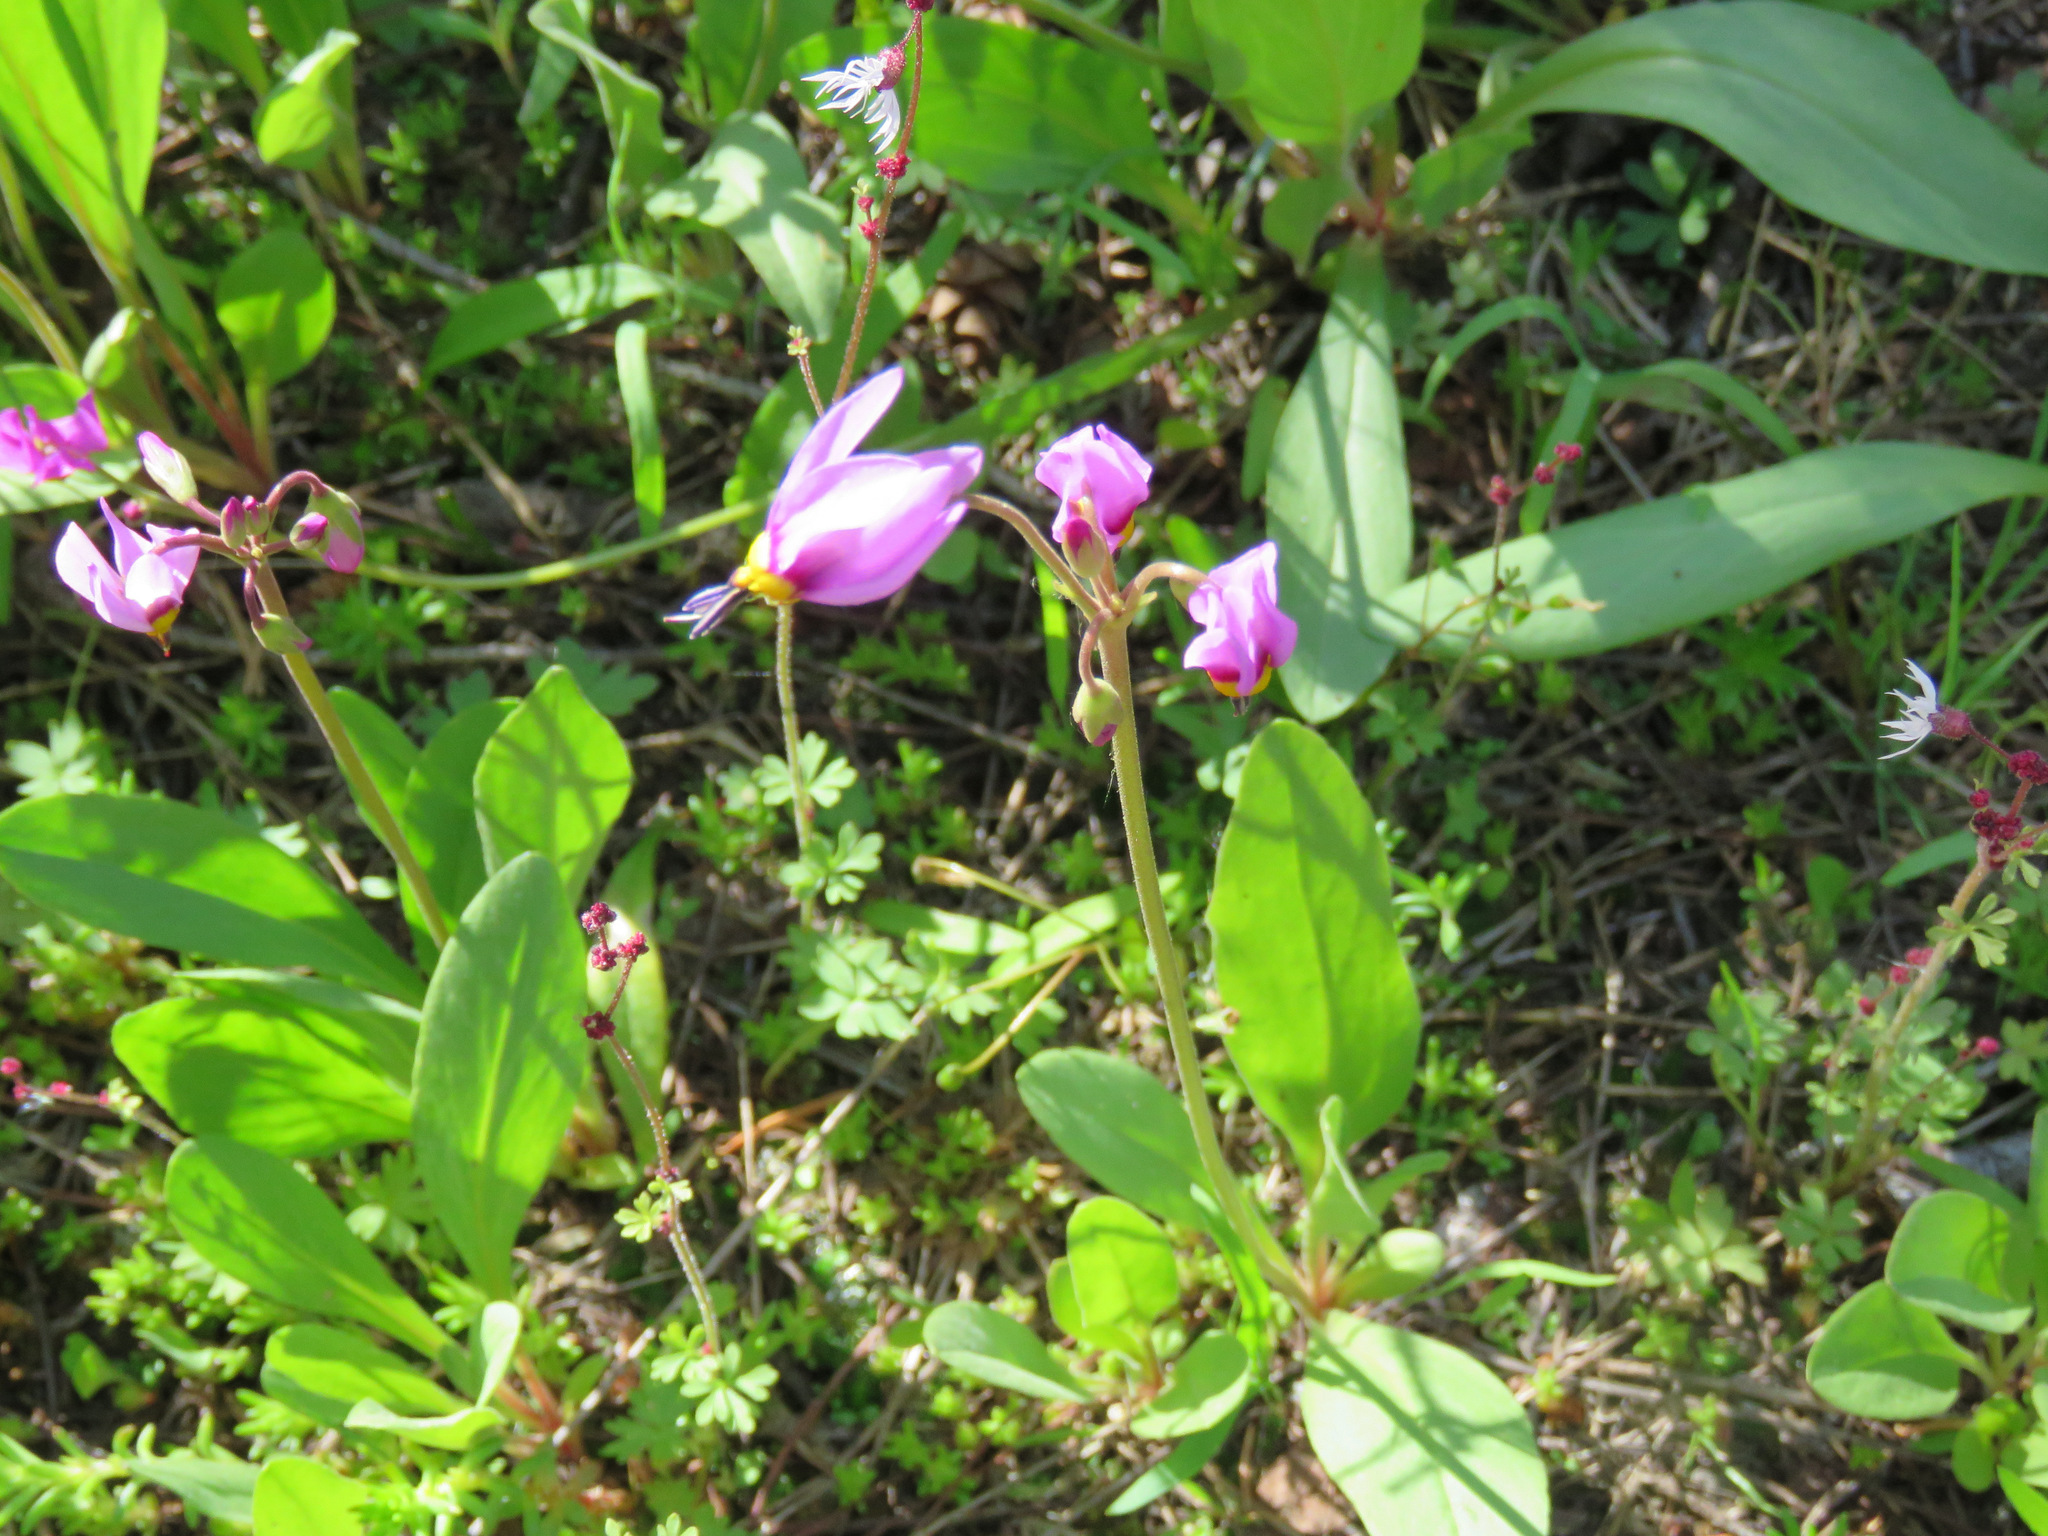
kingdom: Plantae
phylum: Tracheophyta
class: Magnoliopsida
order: Ericales
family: Primulaceae
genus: Dodecatheon
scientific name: Dodecatheon pulchellum
